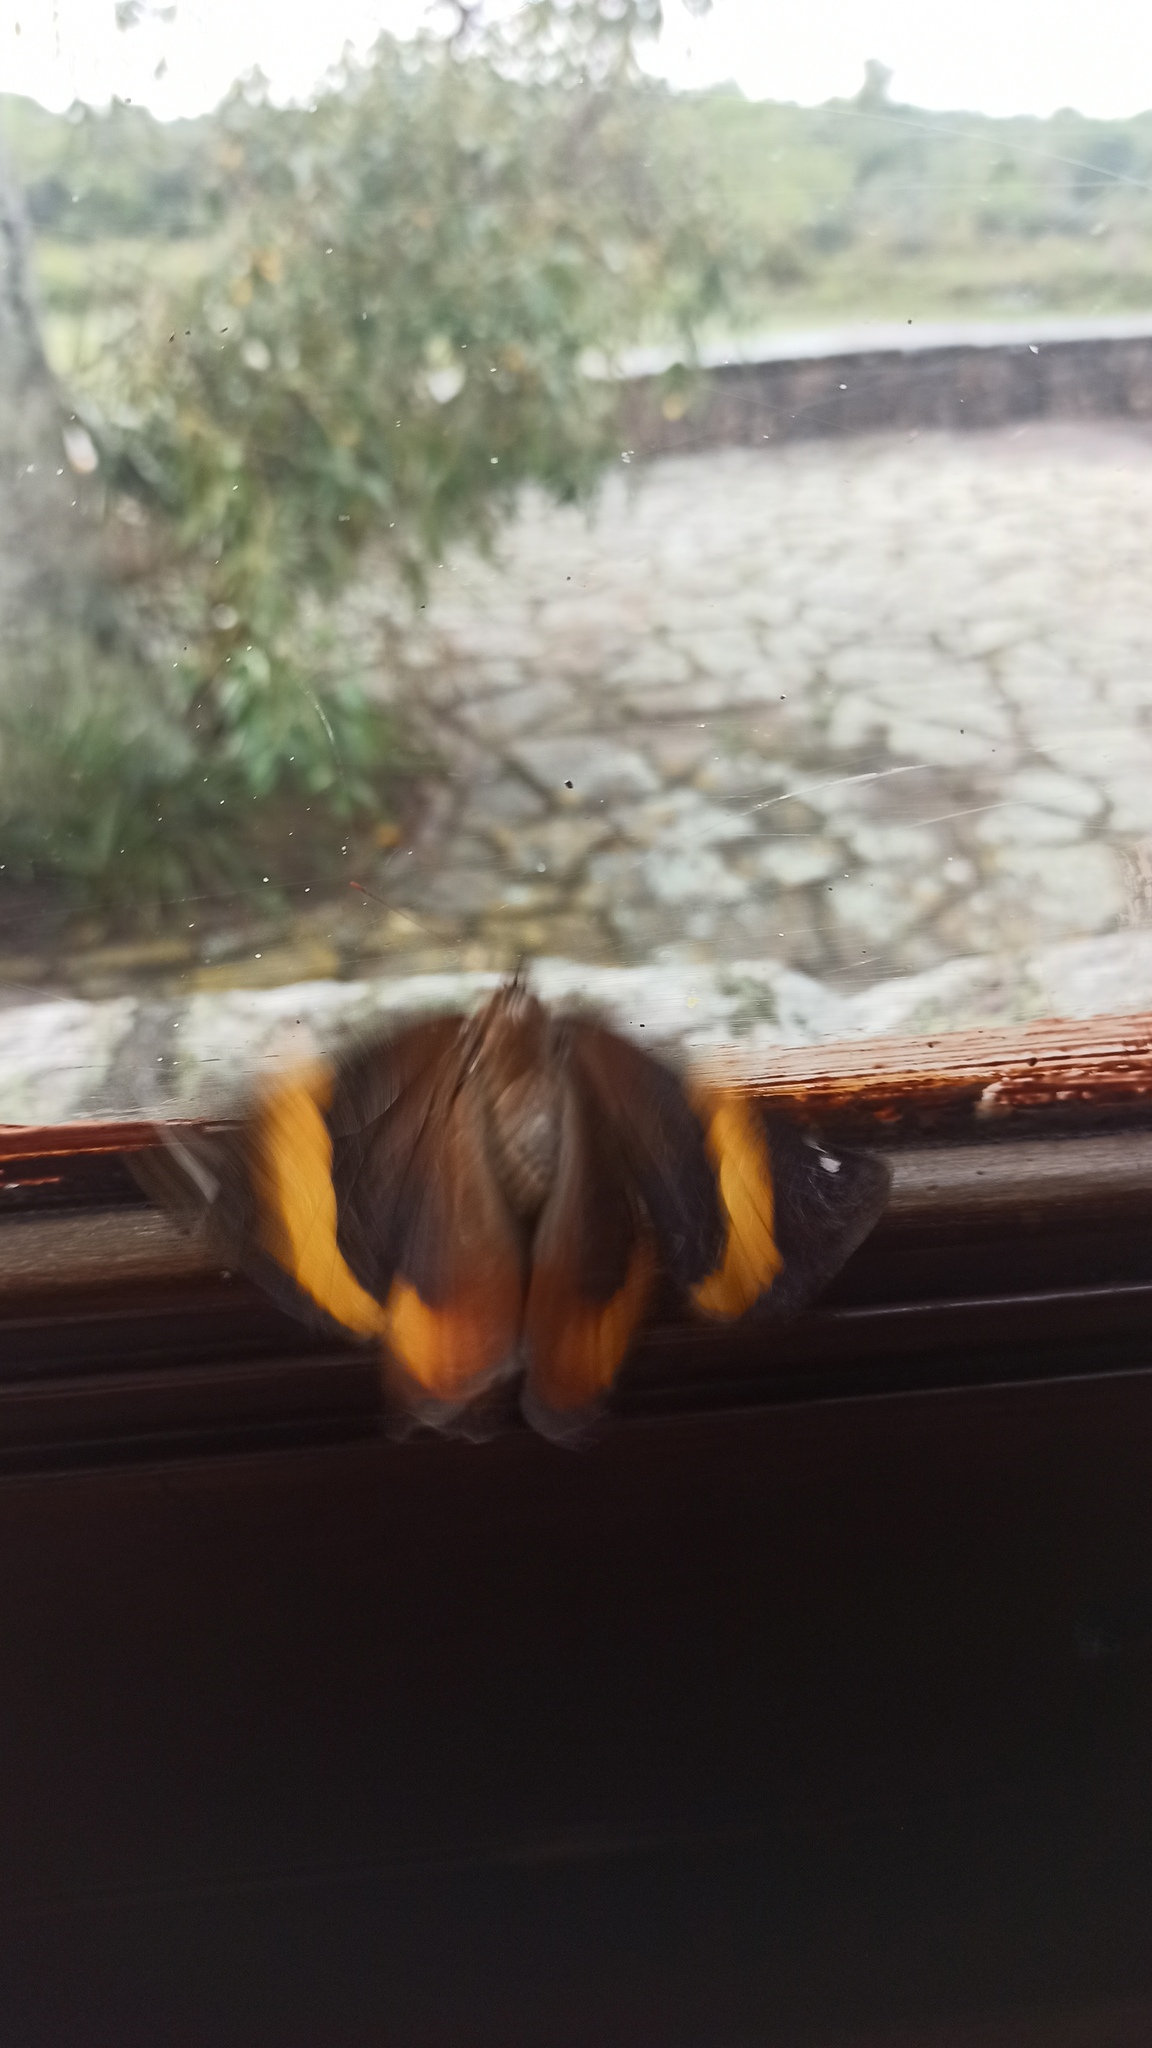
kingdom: Animalia
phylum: Arthropoda
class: Insecta
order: Lepidoptera
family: Nymphalidae
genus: Opsiphanes
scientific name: Opsiphanes invirae
